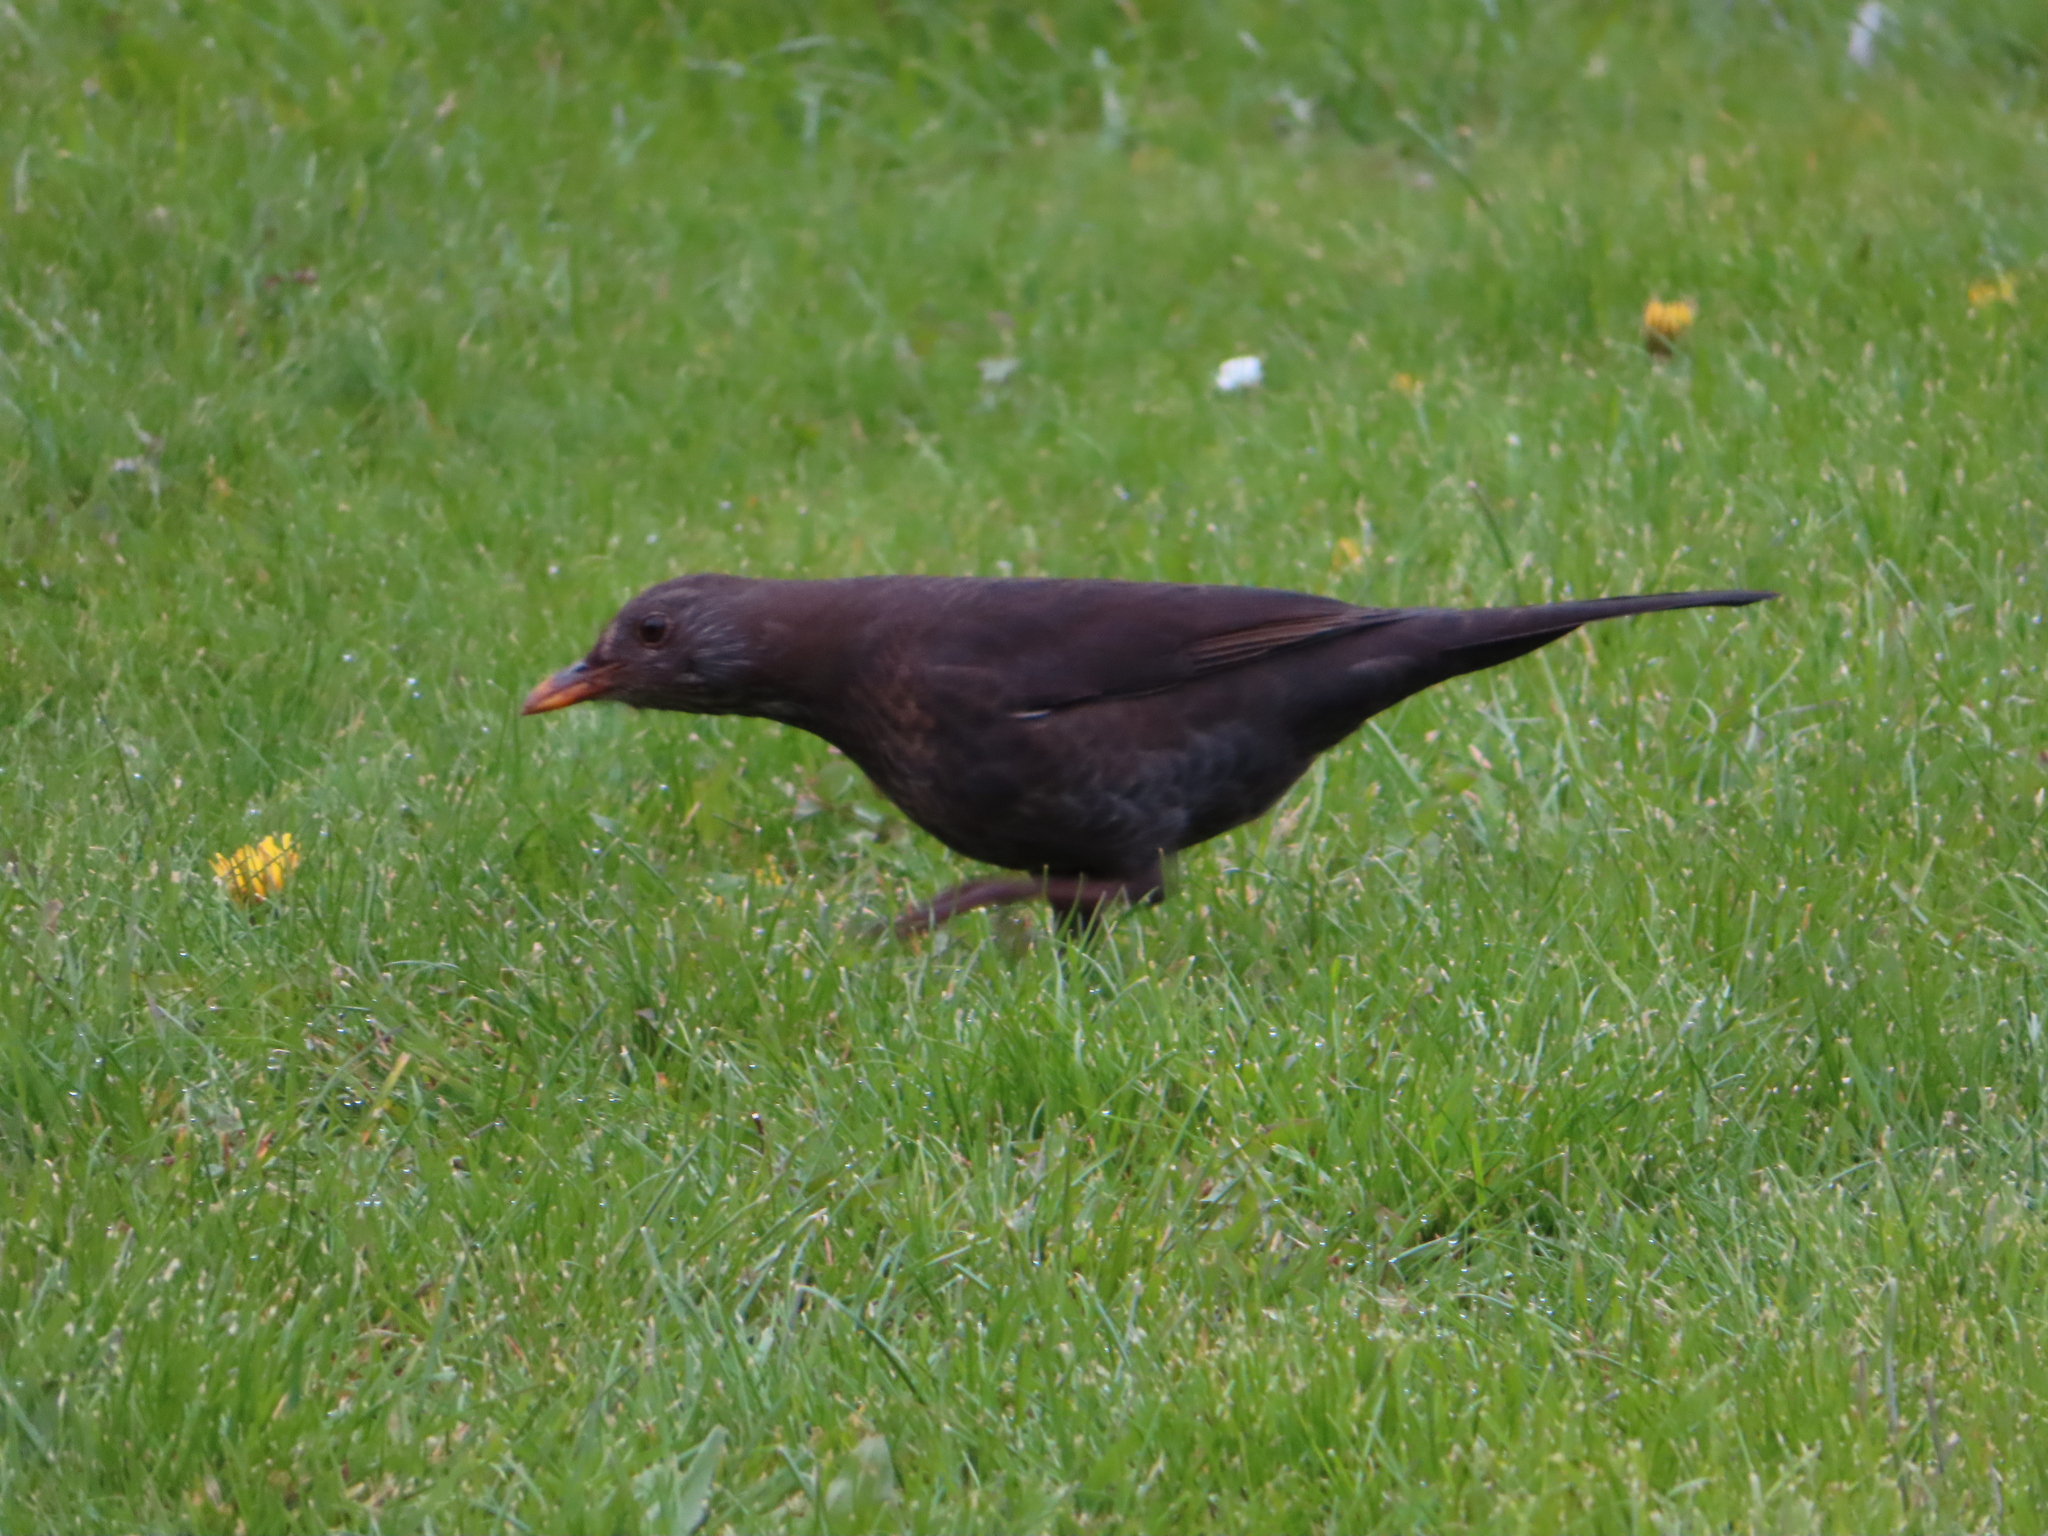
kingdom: Animalia
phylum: Chordata
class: Aves
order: Passeriformes
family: Turdidae
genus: Turdus
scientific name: Turdus merula
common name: Common blackbird
